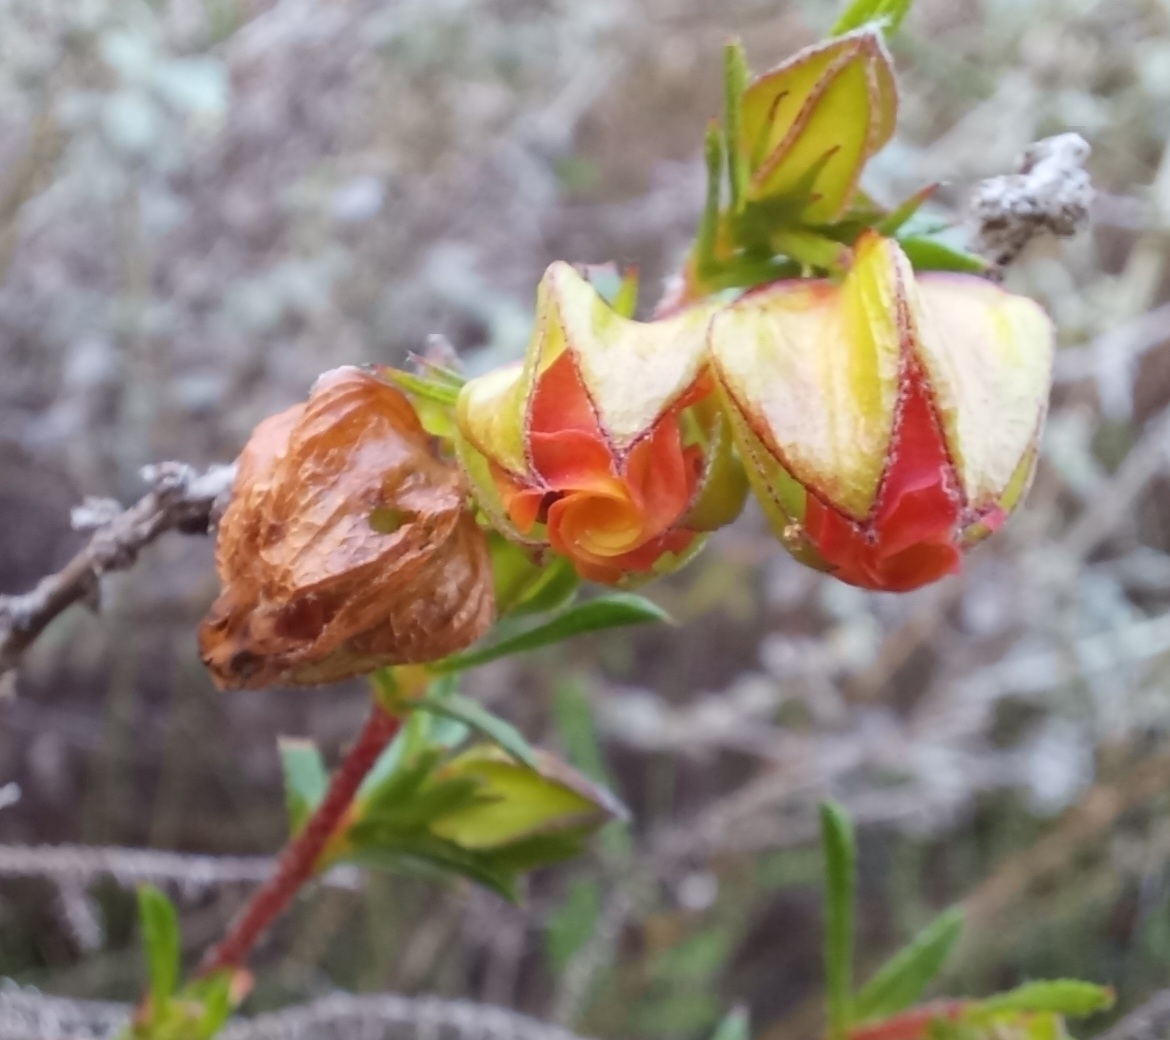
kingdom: Plantae
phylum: Tracheophyta
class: Magnoliopsida
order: Malvales
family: Malvaceae
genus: Hermannia
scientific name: Hermannia angularis
